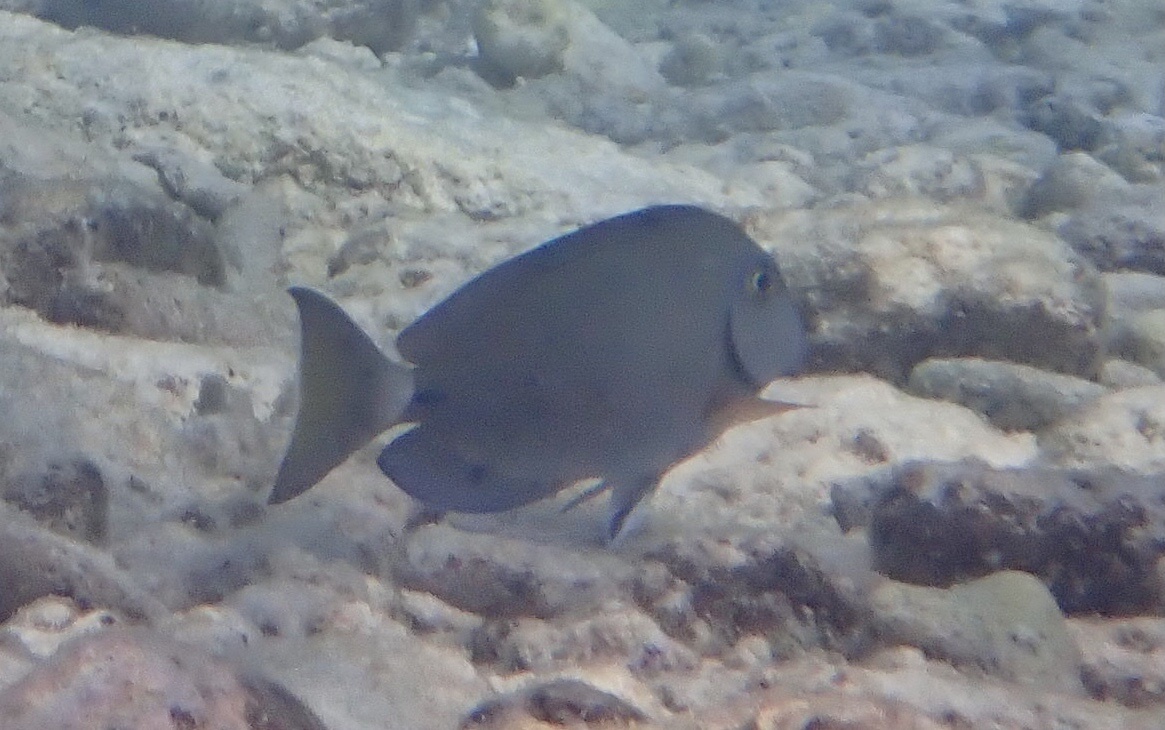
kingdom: Animalia
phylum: Chordata
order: Perciformes
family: Acanthuridae
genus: Acanthurus
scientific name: Acanthurus bahianus
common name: Ocean surgeon
